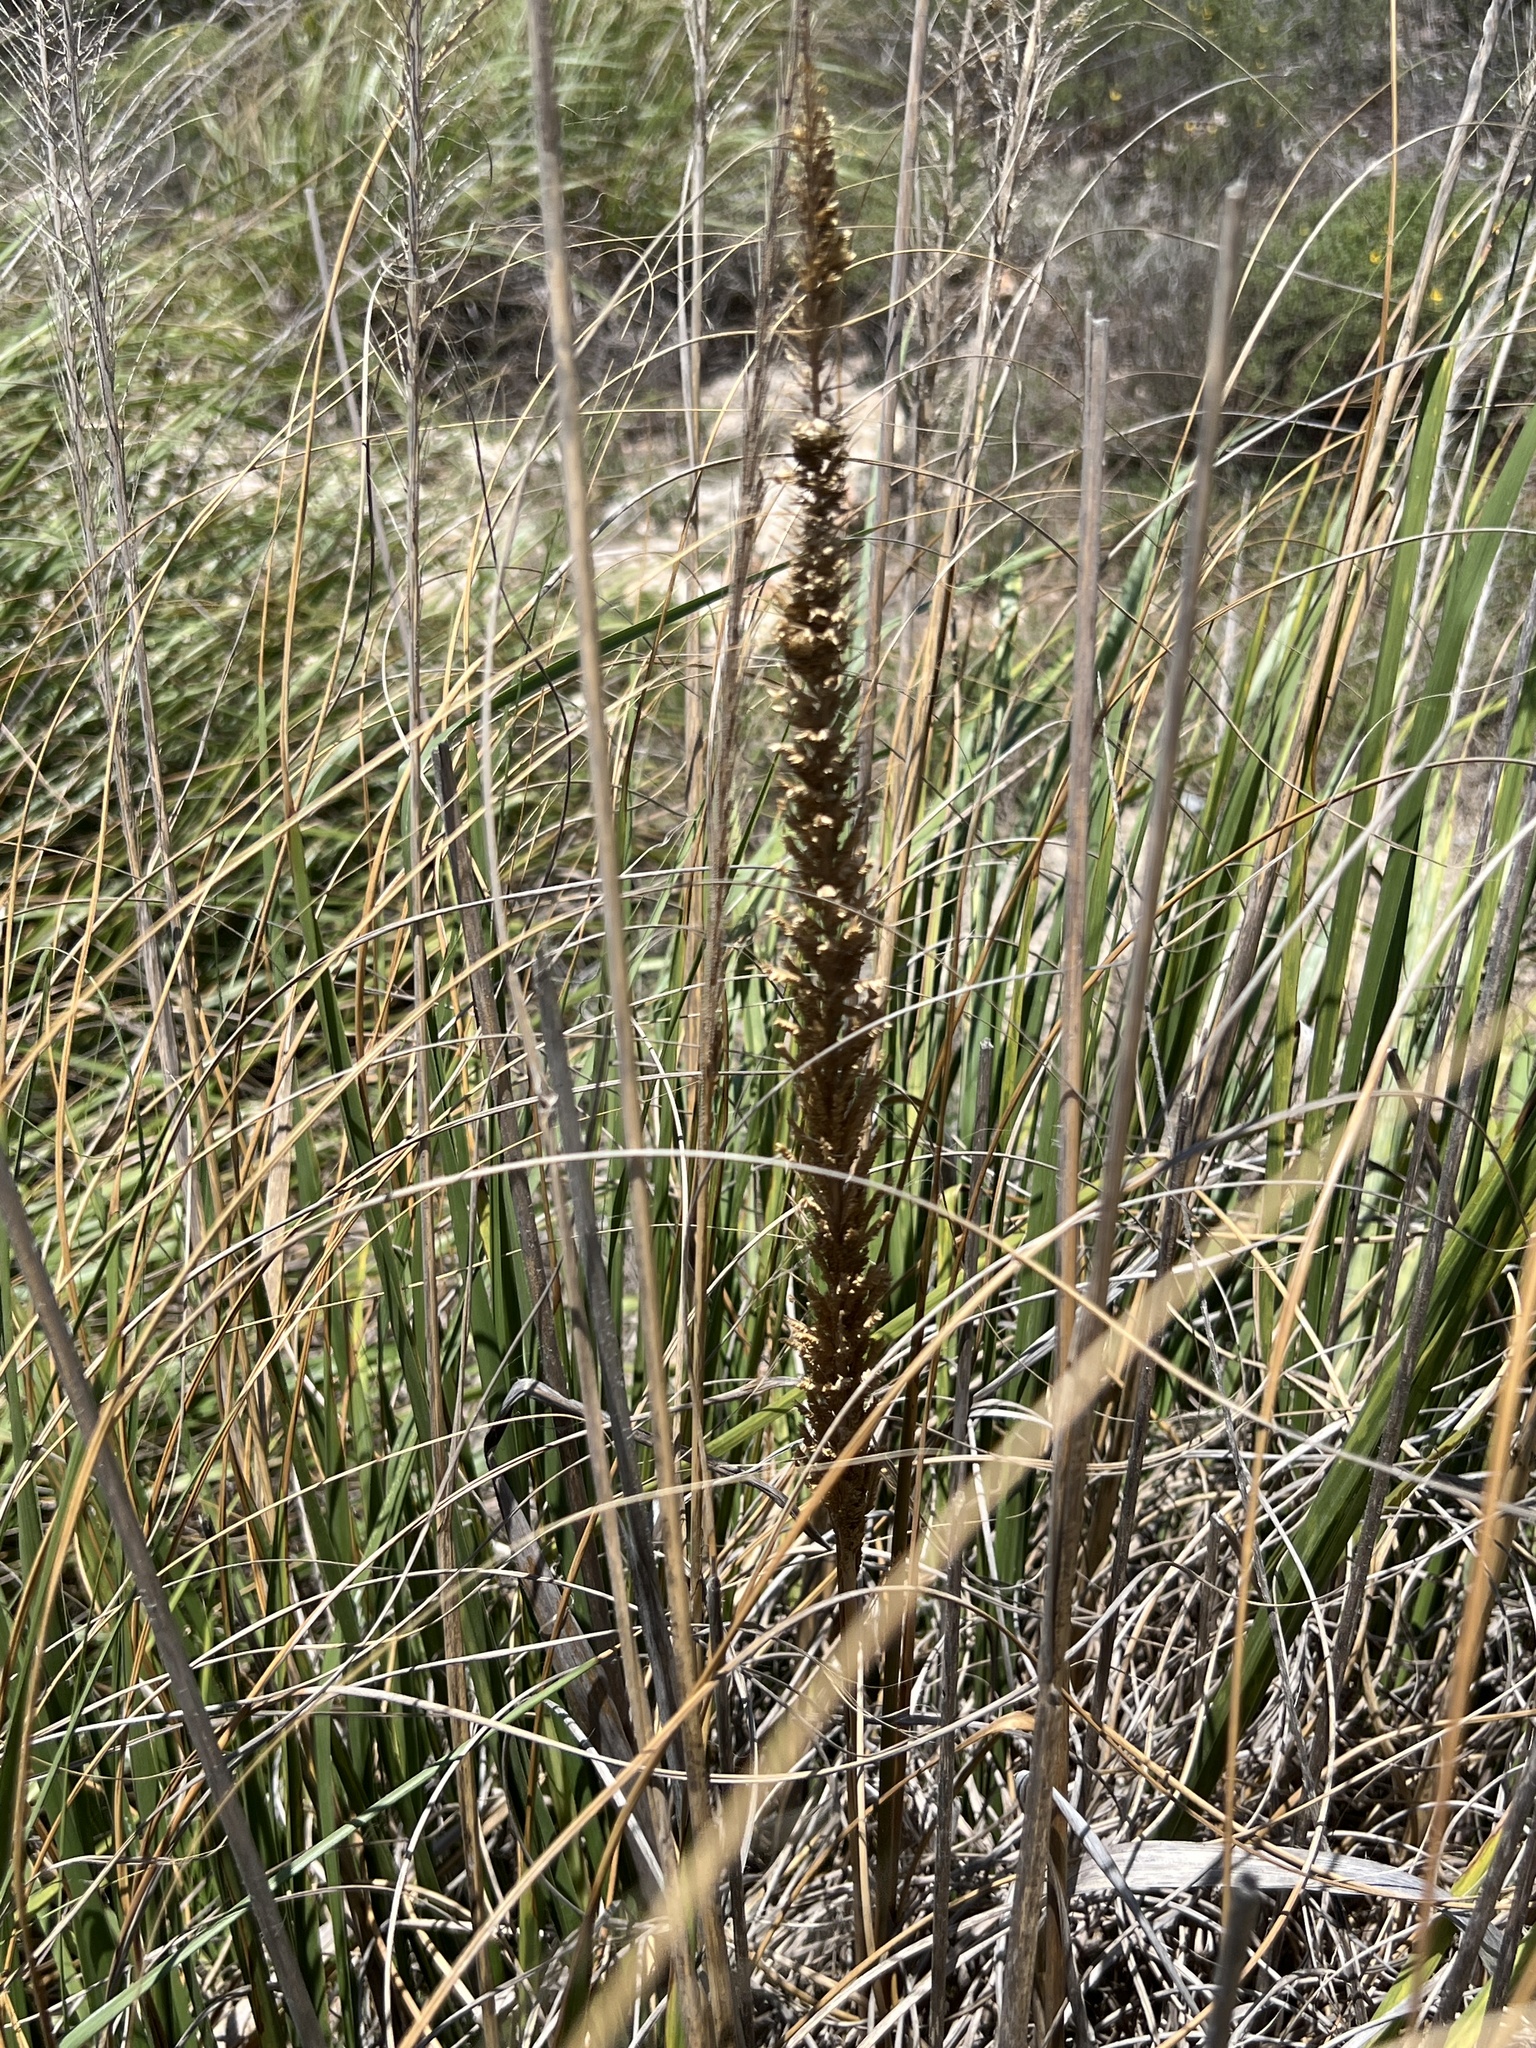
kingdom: Plantae
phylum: Tracheophyta
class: Liliopsida
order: Poales
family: Poaceae
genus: Uniola
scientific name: Uniola virgata
